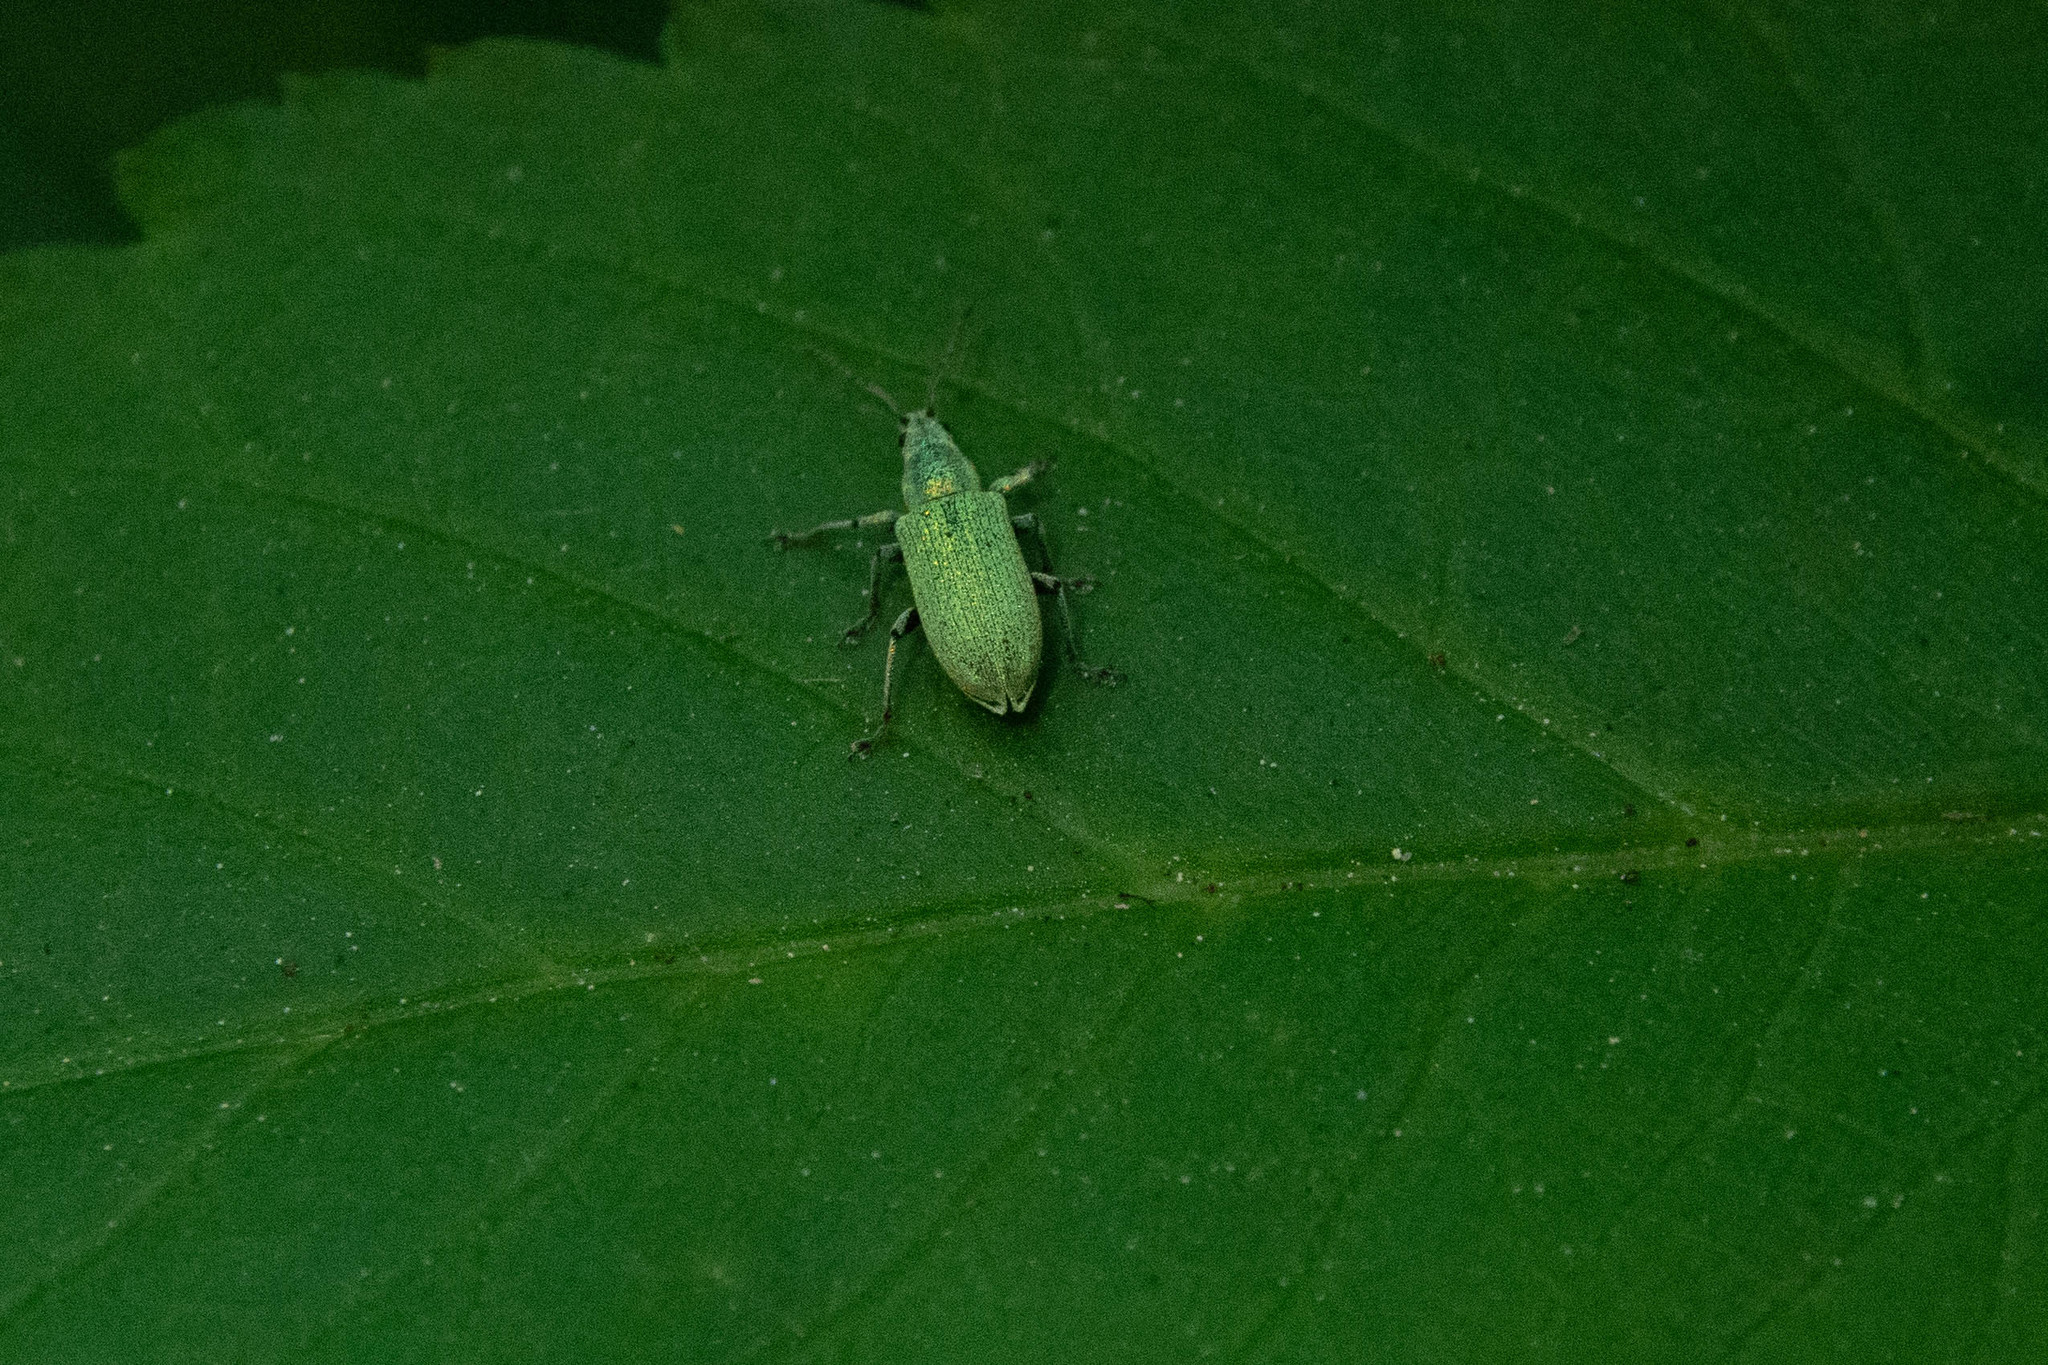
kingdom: Animalia
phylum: Arthropoda
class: Insecta
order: Coleoptera
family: Curculionidae
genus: Phyllobius
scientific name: Phyllobius maculicornis
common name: Green leaf weevil
